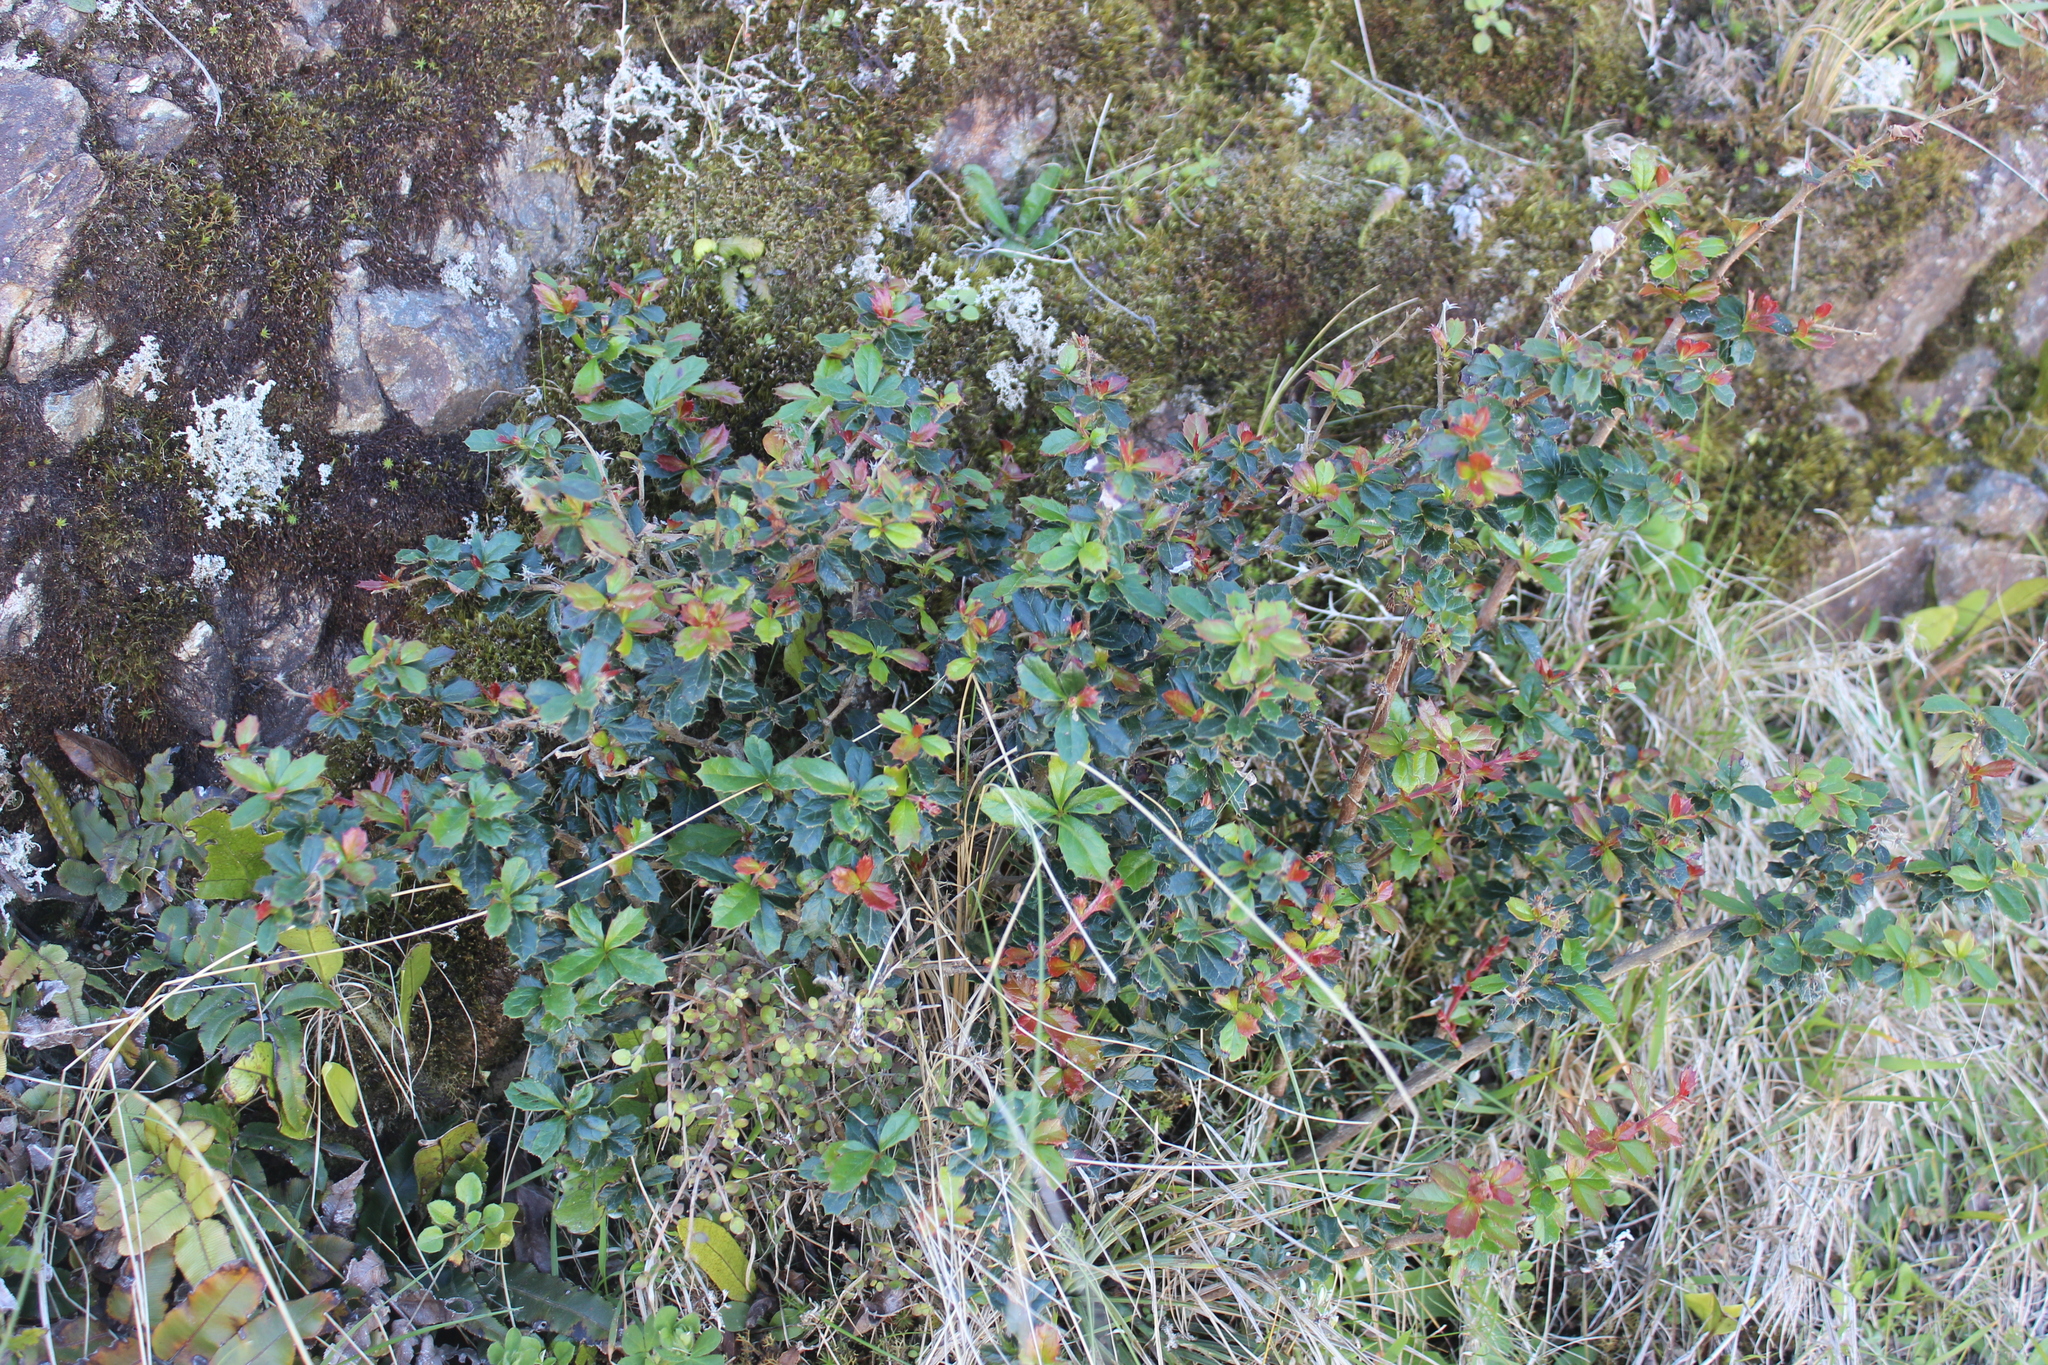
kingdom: Plantae
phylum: Tracheophyta
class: Magnoliopsida
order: Ranunculales
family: Berberidaceae
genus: Berberis
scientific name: Berberis darwinii
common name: Darwin's barberry
